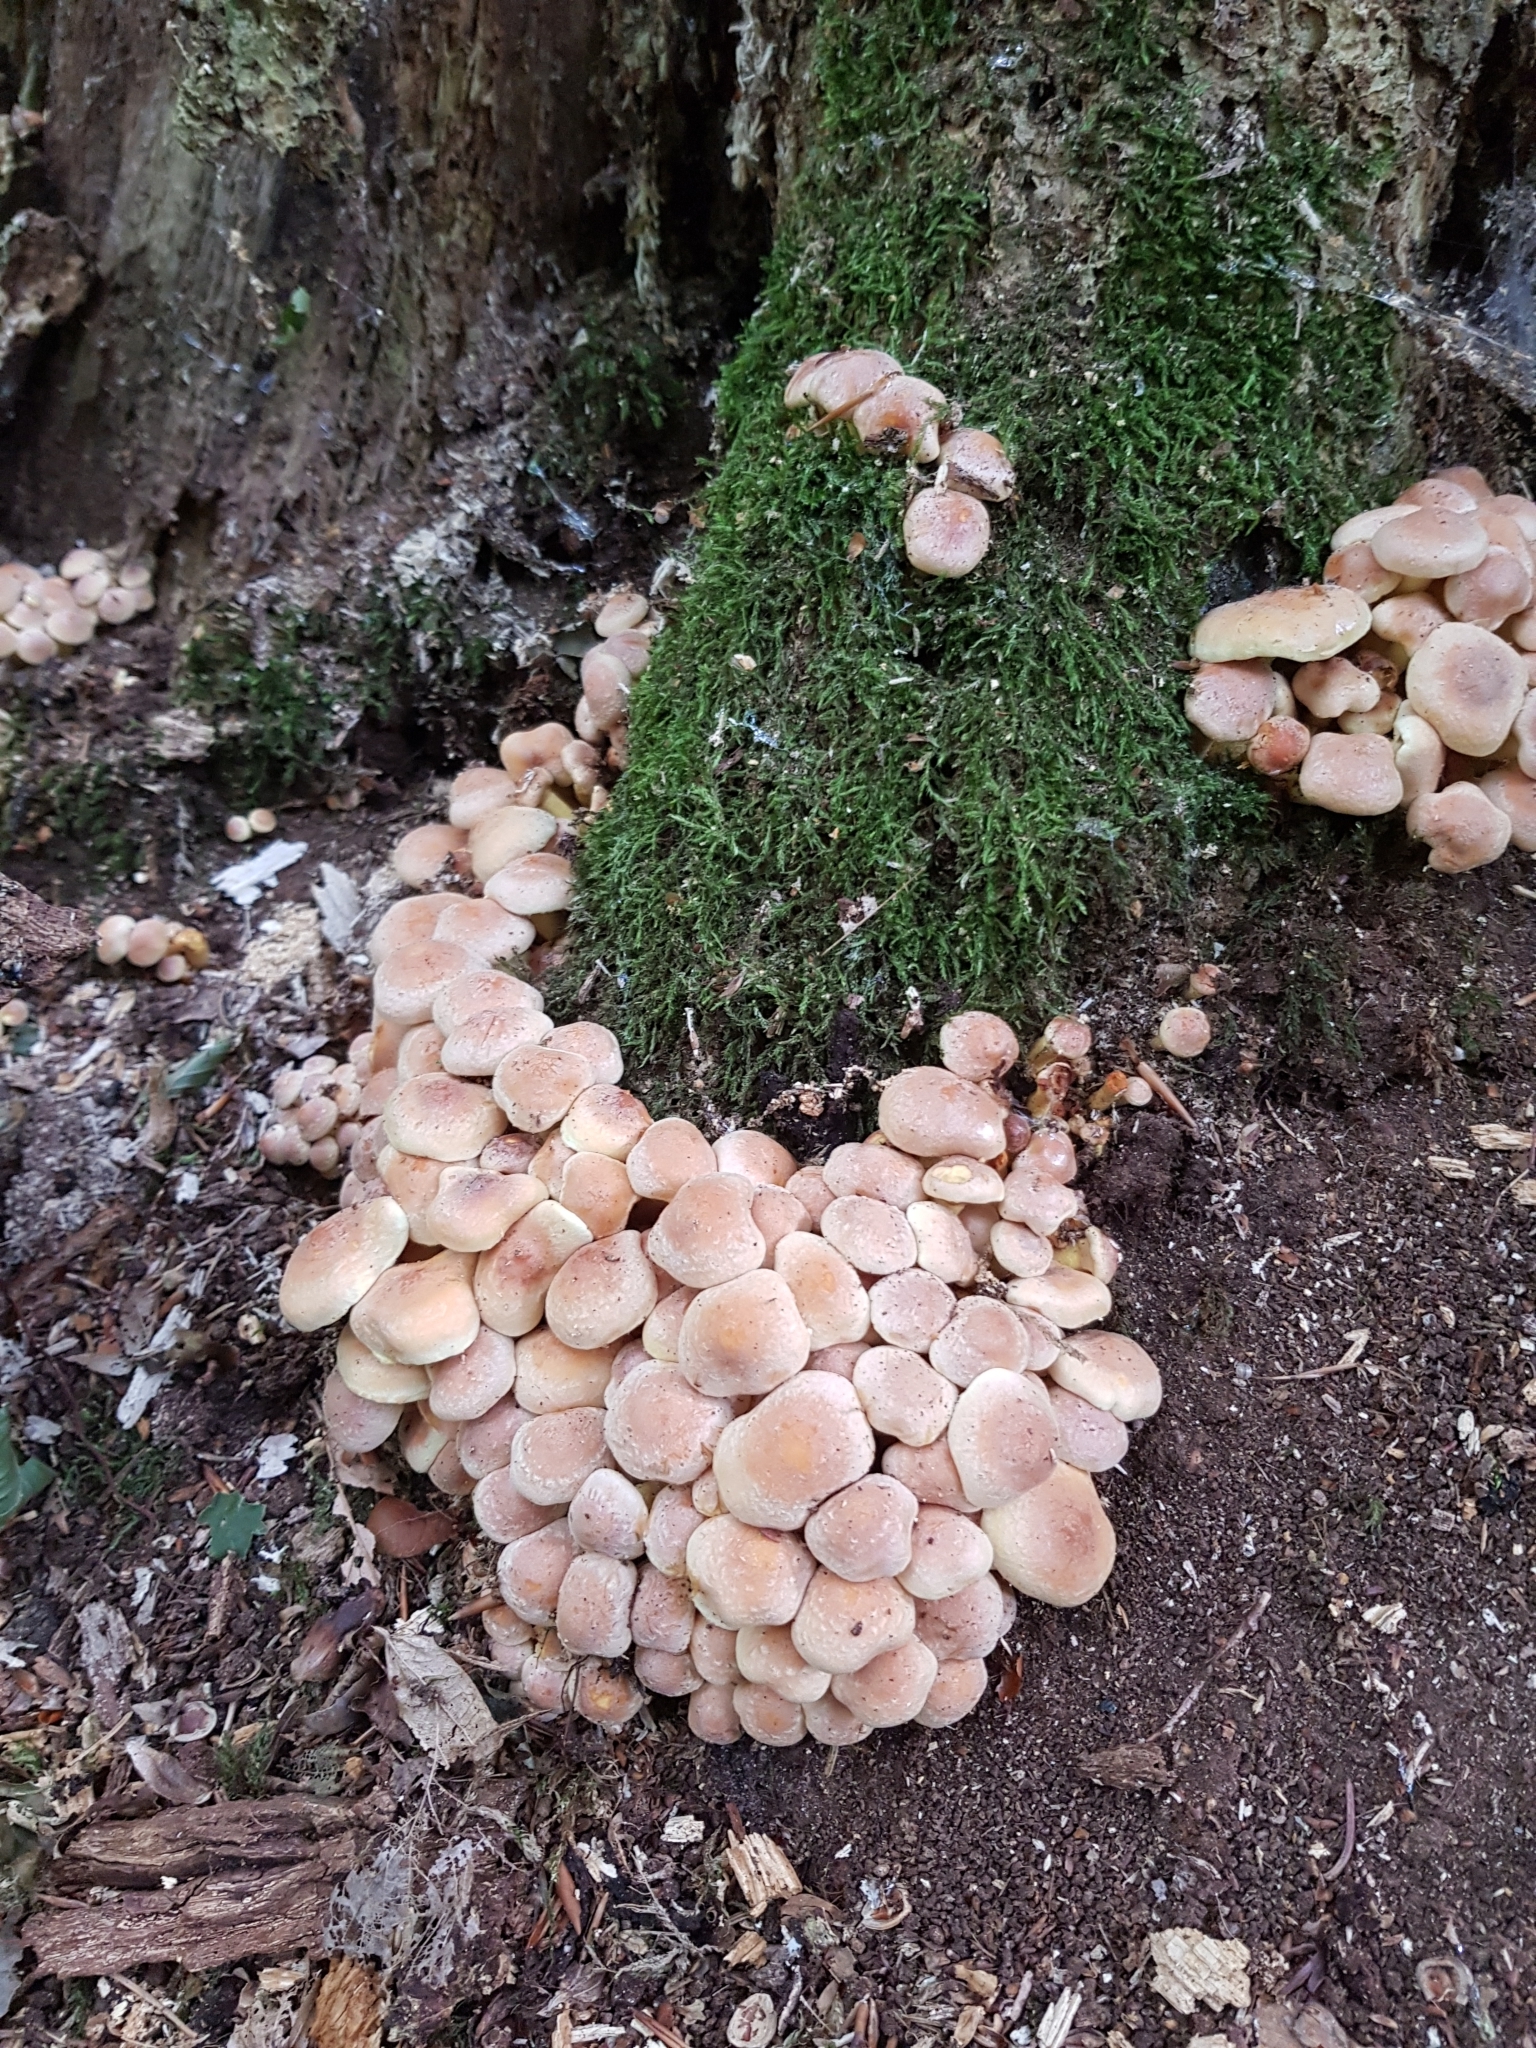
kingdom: Fungi
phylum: Basidiomycota
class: Agaricomycetes
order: Agaricales
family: Strophariaceae
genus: Hypholoma
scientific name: Hypholoma fasciculare
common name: Sulphur tuft
